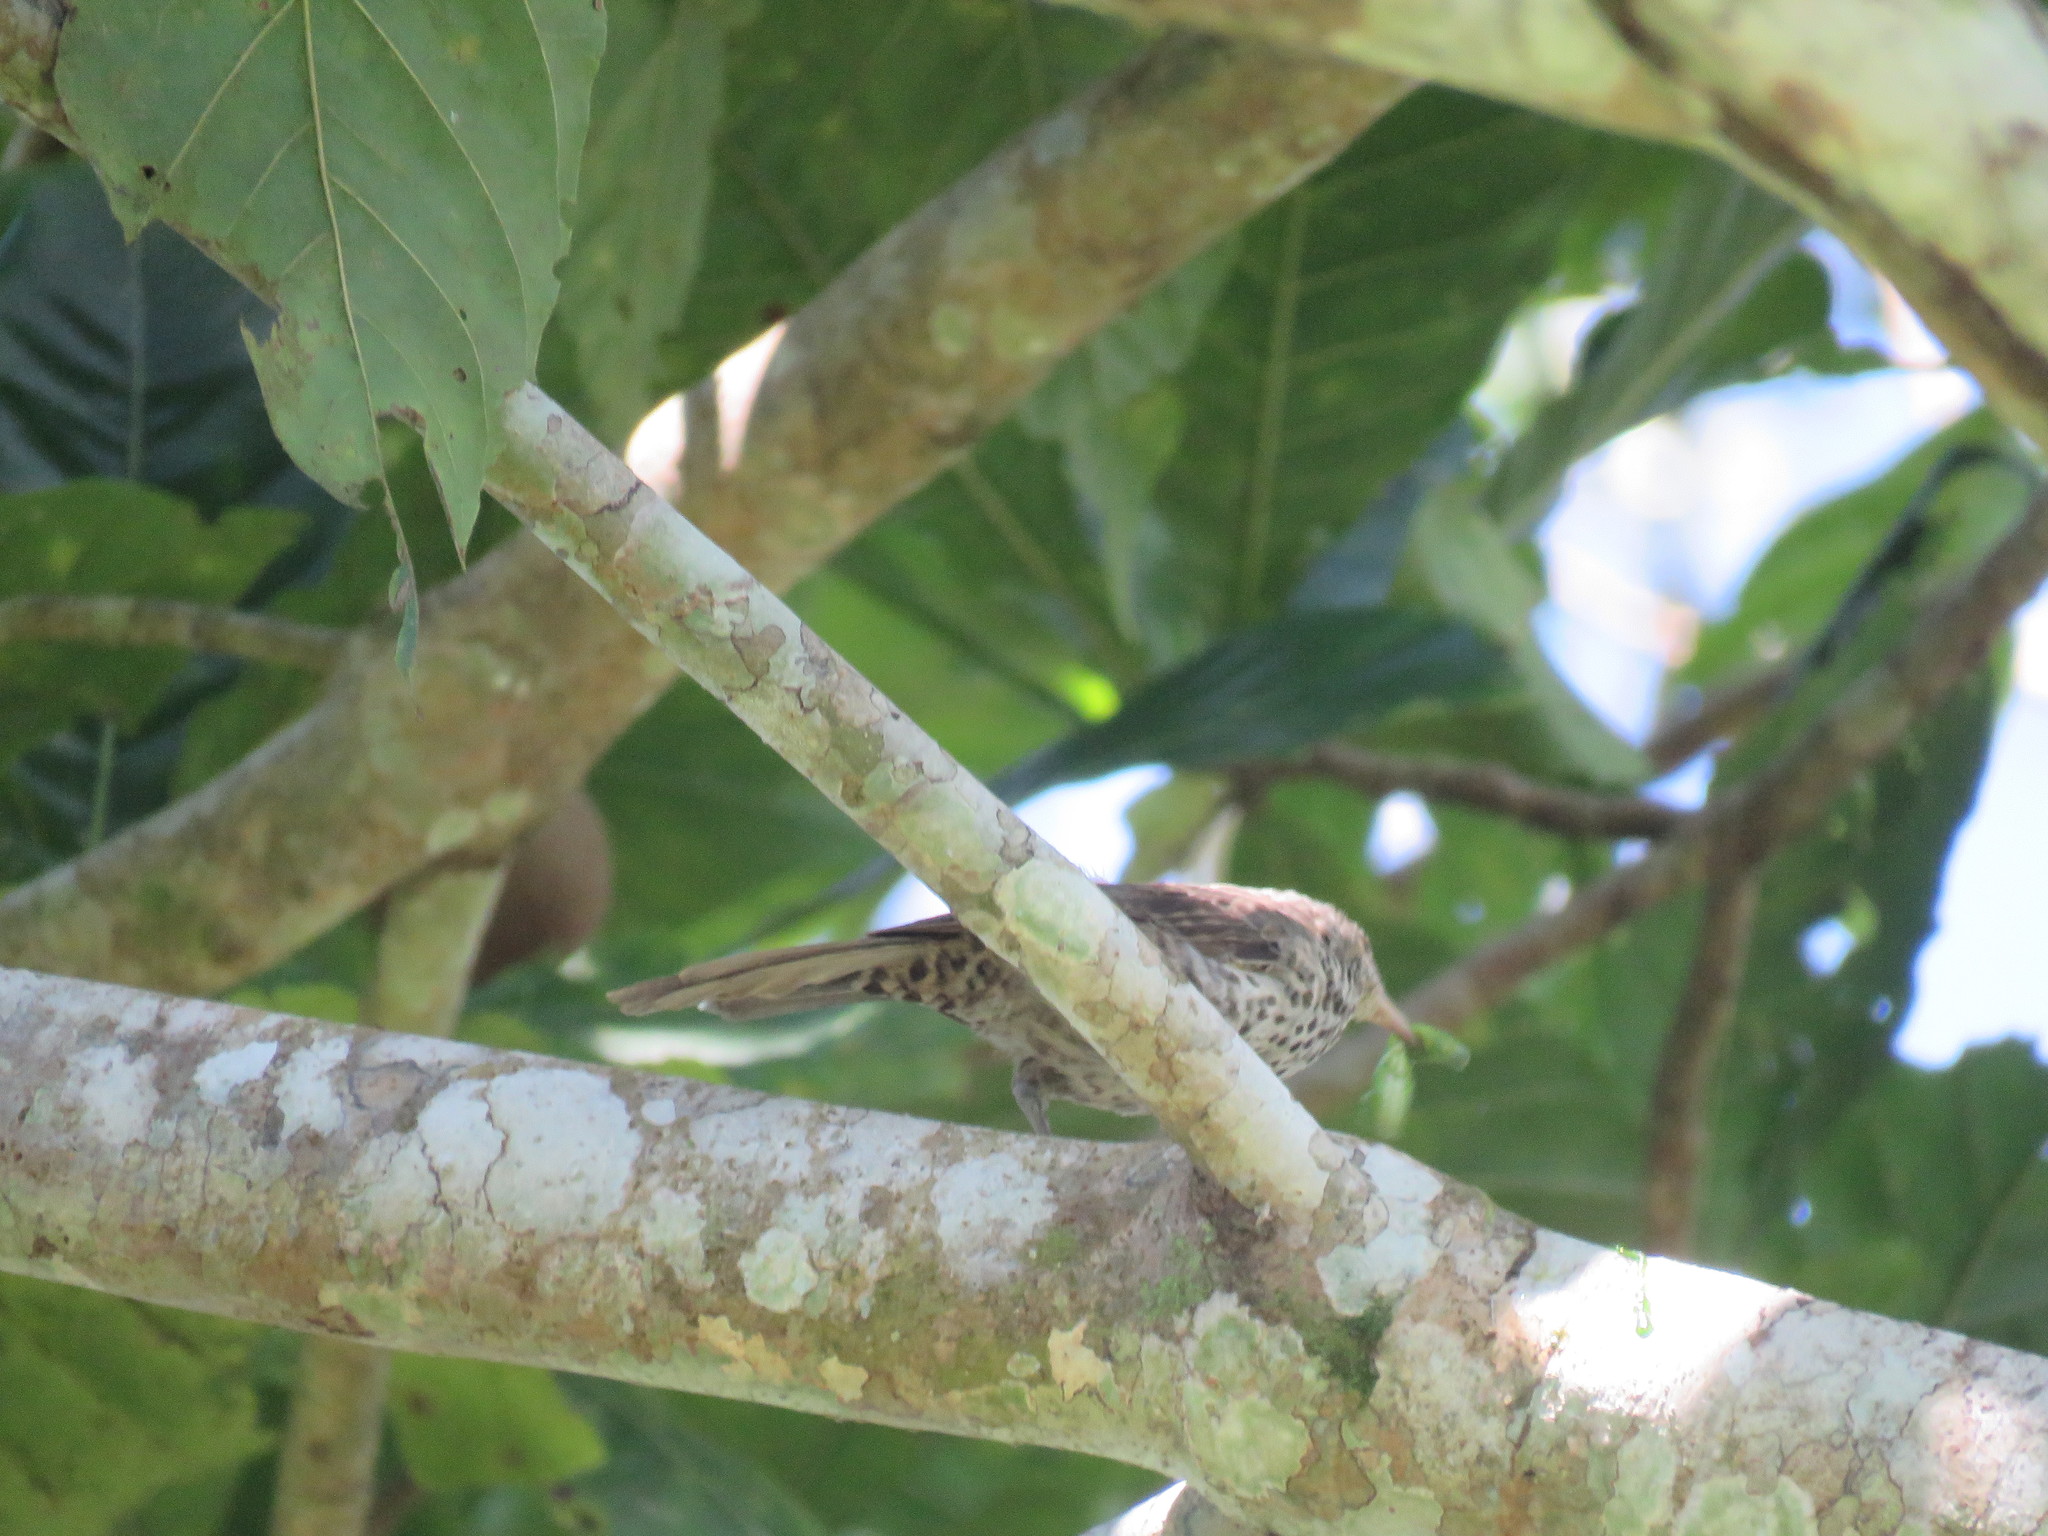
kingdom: Animalia
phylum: Chordata
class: Aves
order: Passeriformes
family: Troglodytidae
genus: Campylorhynchus
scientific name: Campylorhynchus turdinus
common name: Thrush-like wren
